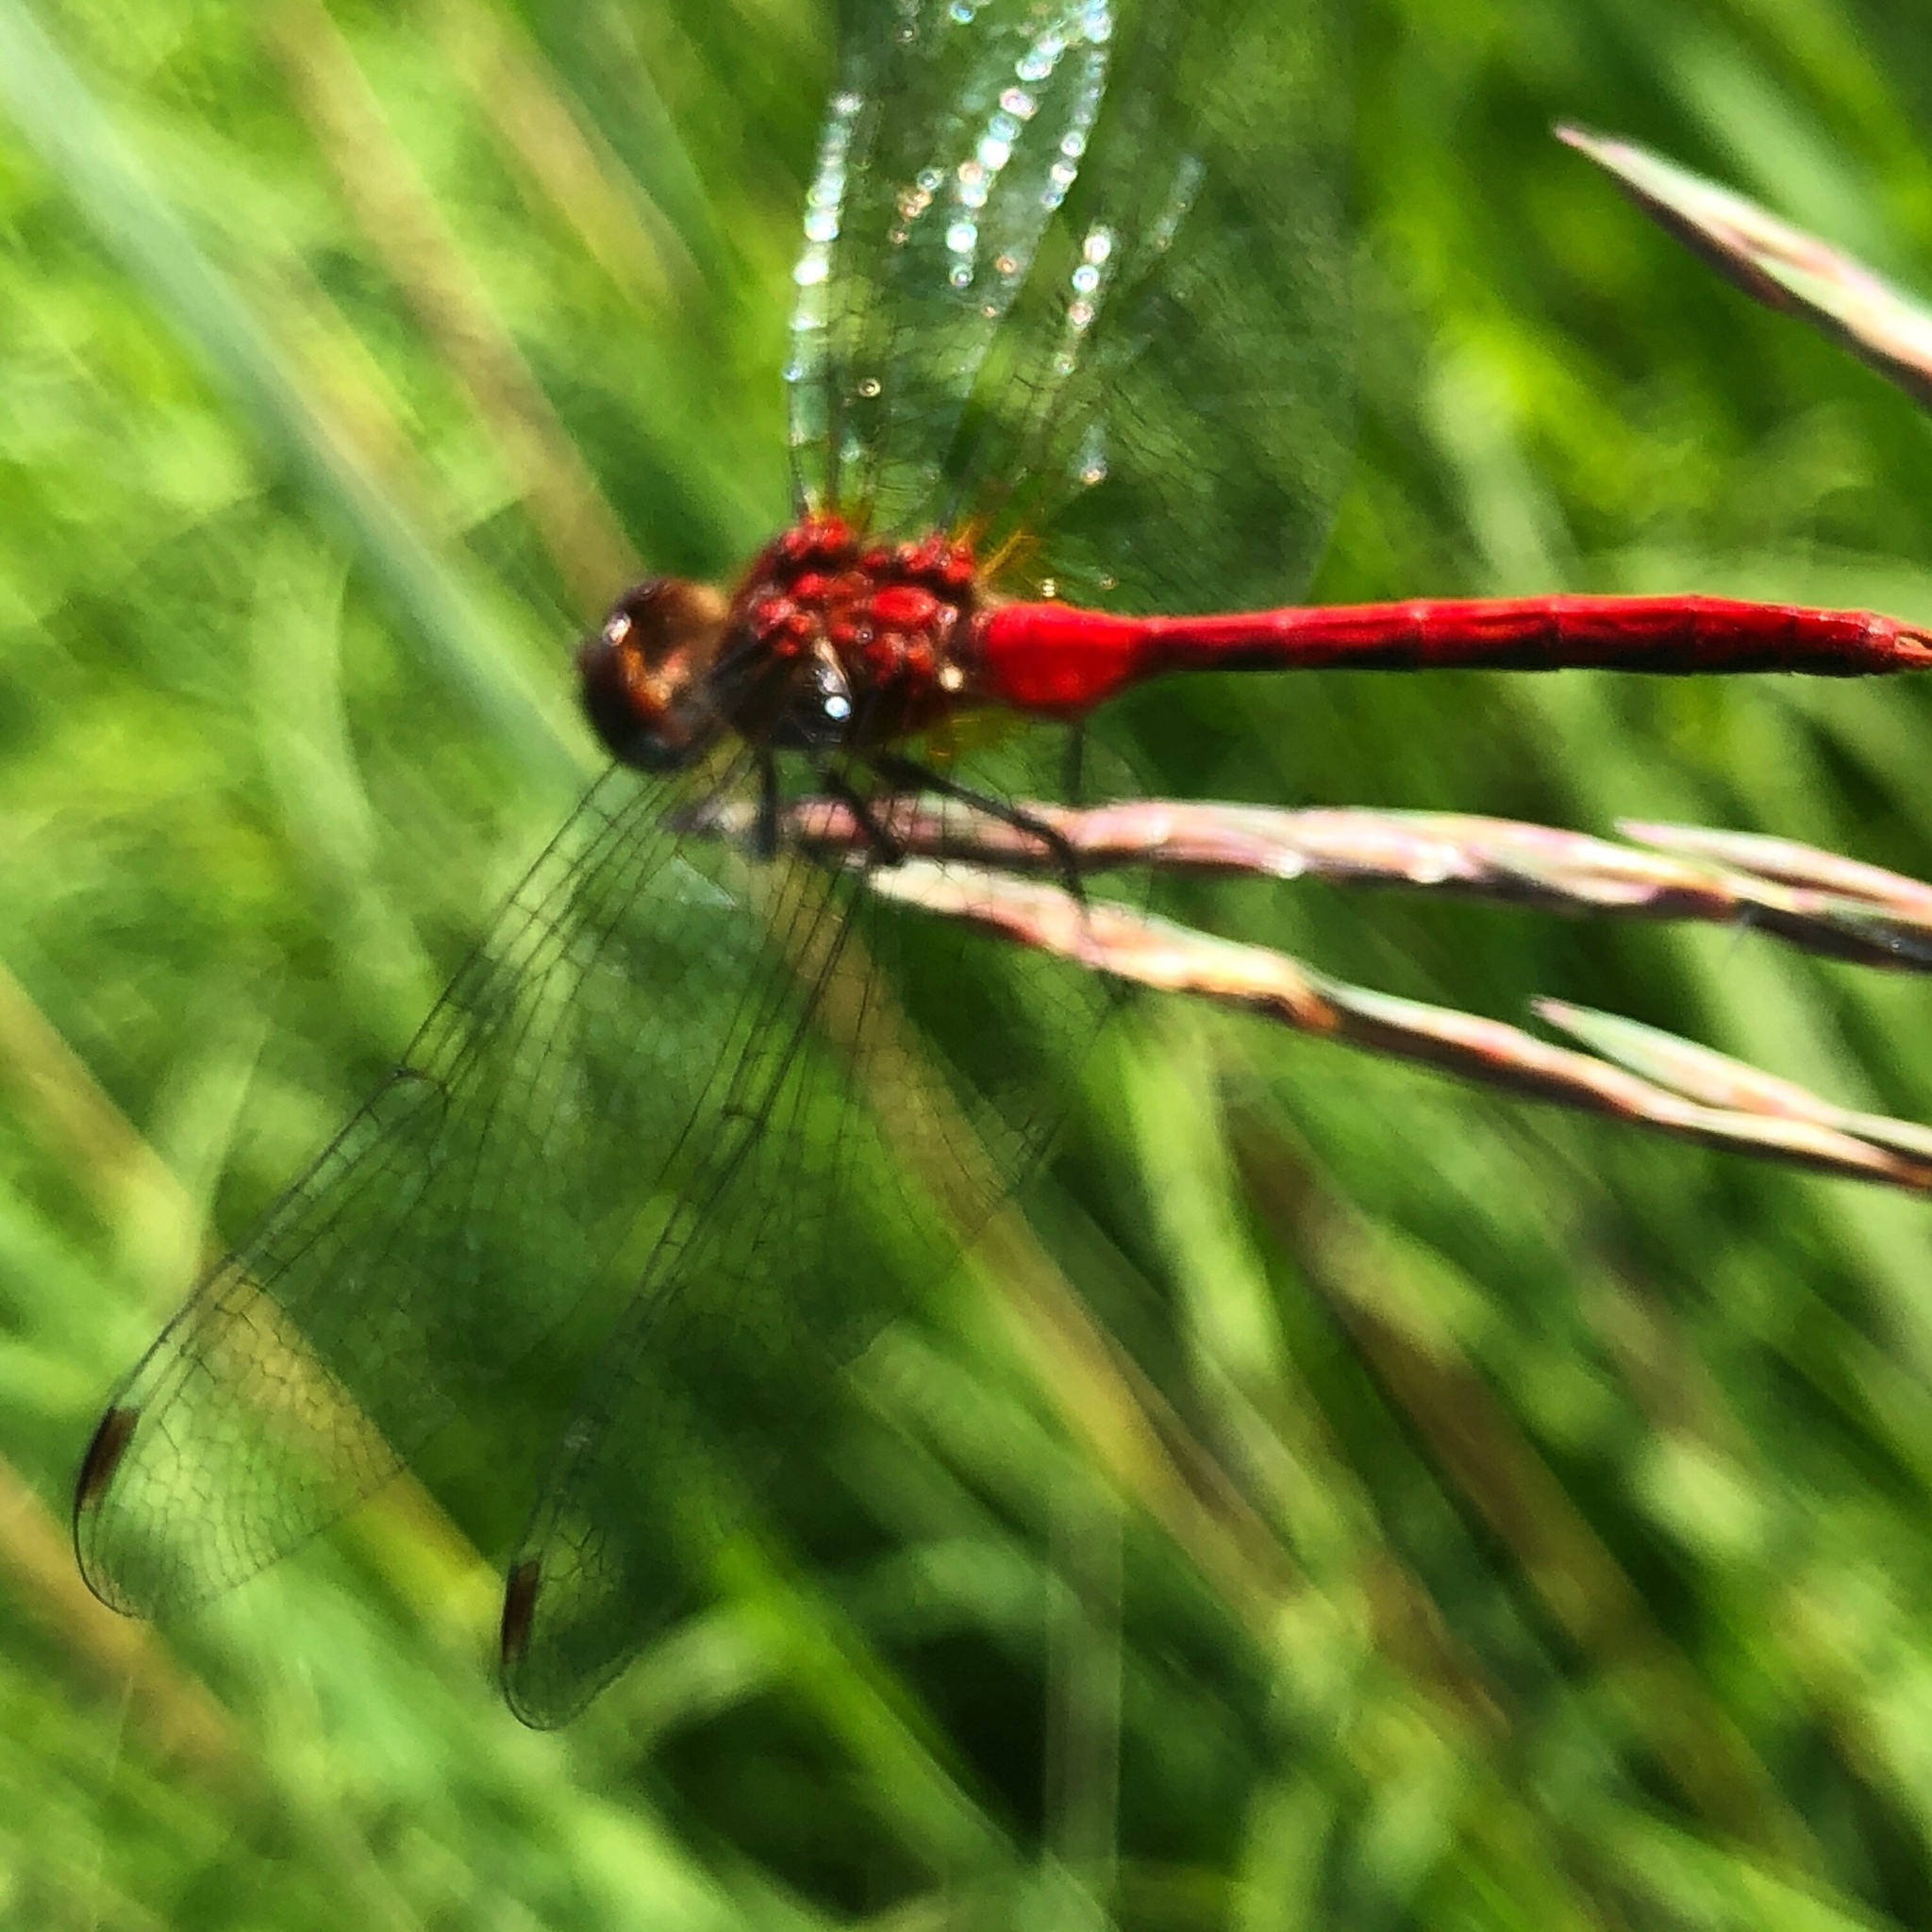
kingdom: Animalia
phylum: Arthropoda
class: Insecta
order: Odonata
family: Libellulidae
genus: Sympetrum
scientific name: Sympetrum
